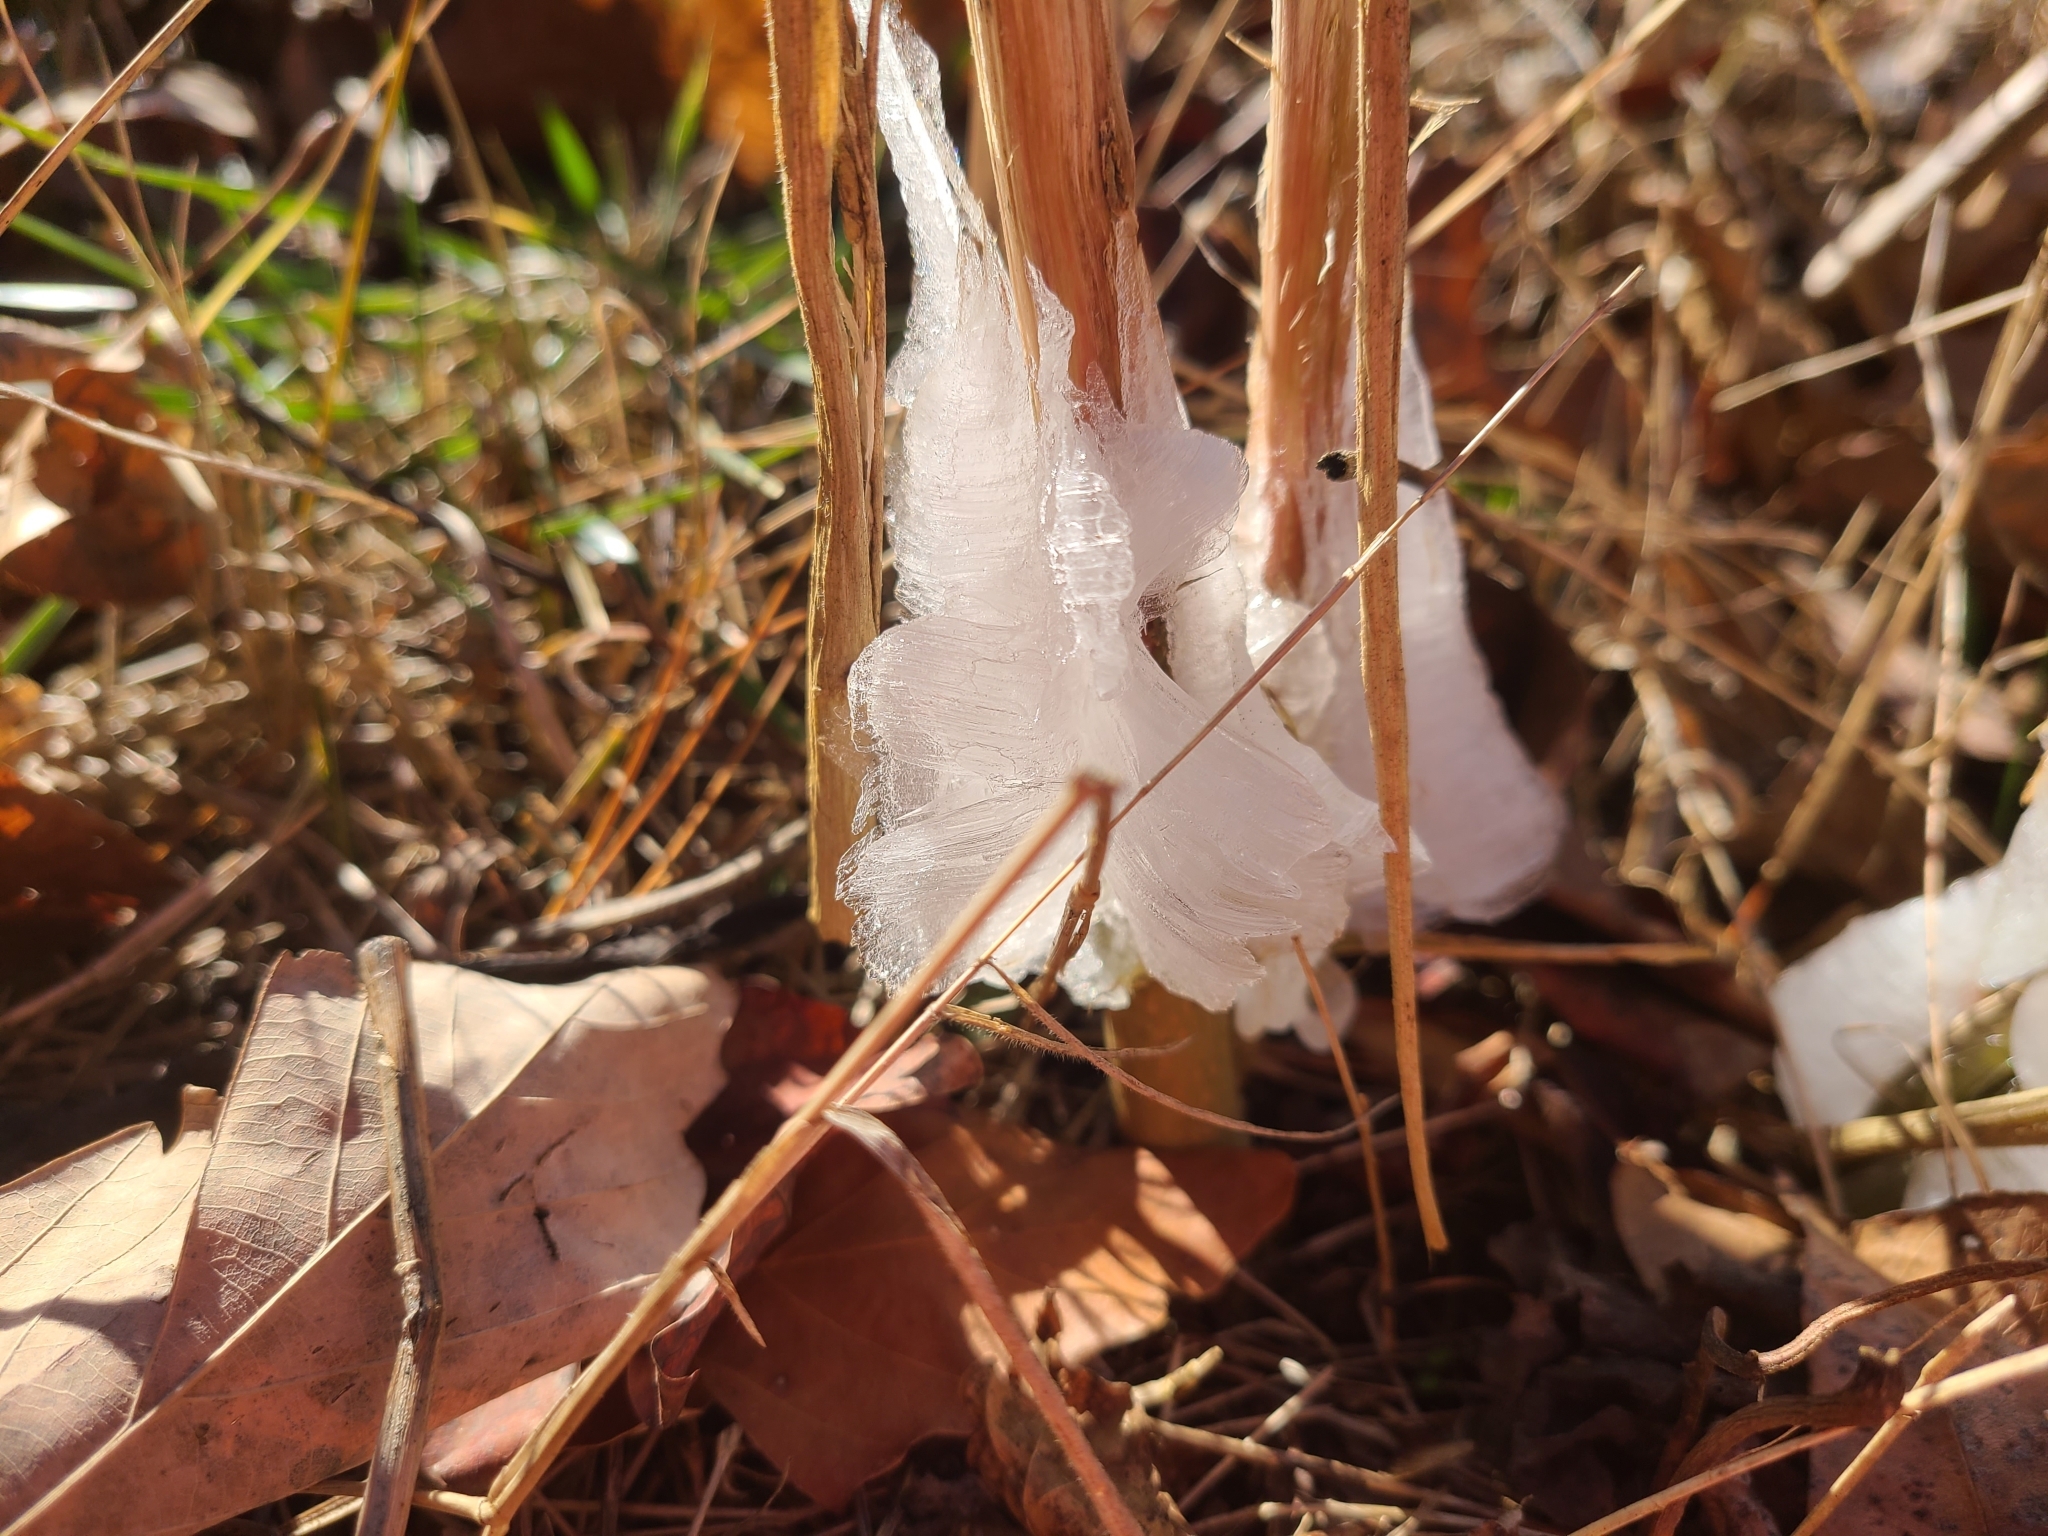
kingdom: Plantae
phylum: Tracheophyta
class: Magnoliopsida
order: Asterales
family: Asteraceae
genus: Verbesina
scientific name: Verbesina virginica
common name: Frostweed
